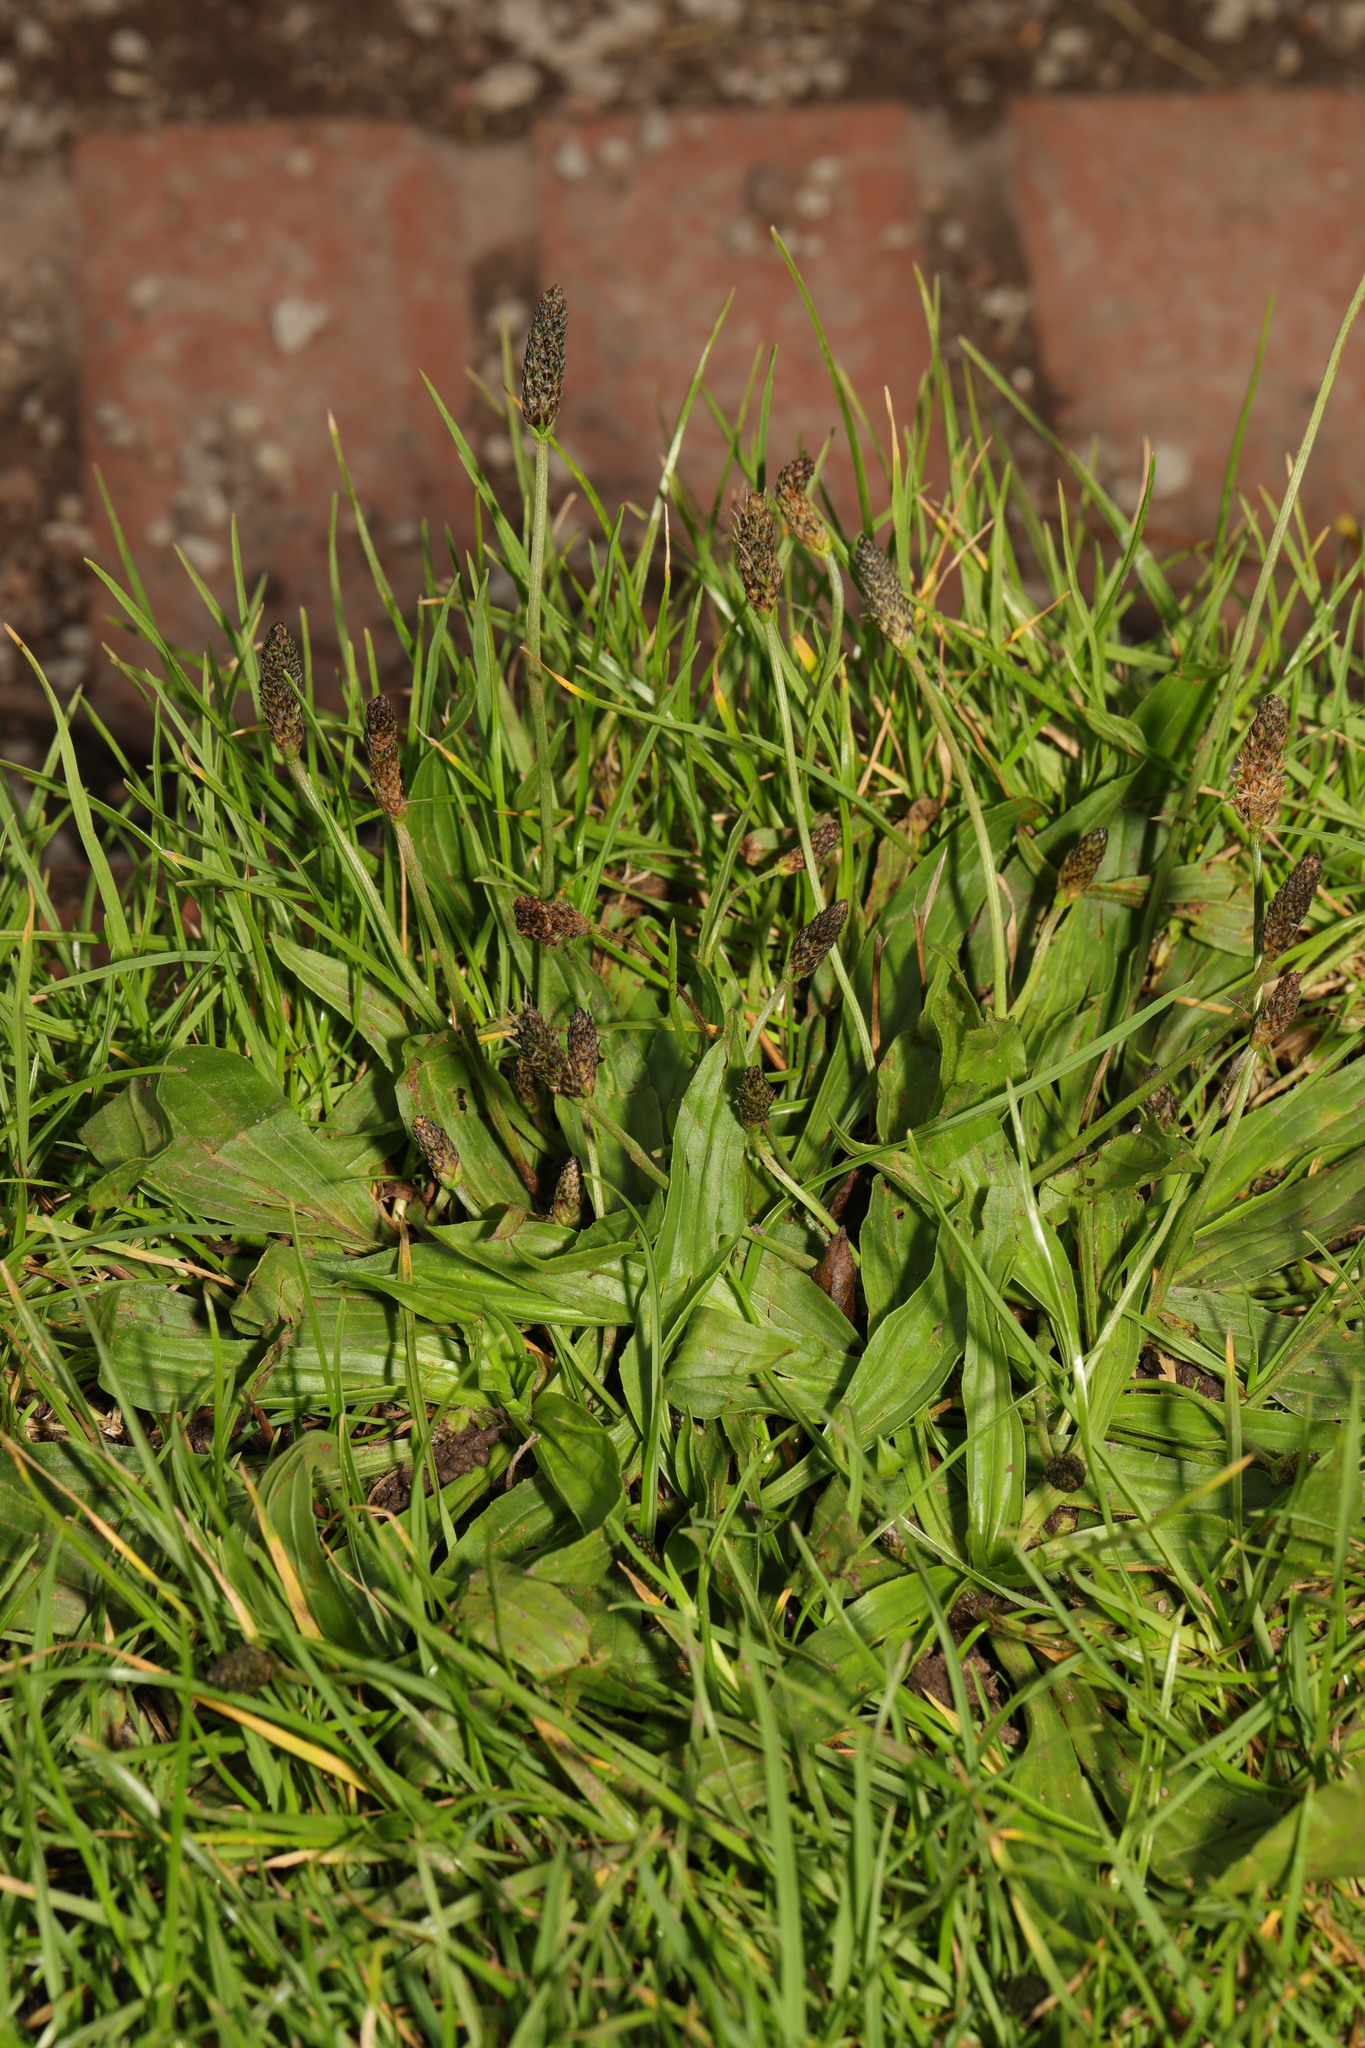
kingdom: Plantae
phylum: Tracheophyta
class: Magnoliopsida
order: Lamiales
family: Plantaginaceae
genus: Plantago
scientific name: Plantago lanceolata
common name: Ribwort plantain
